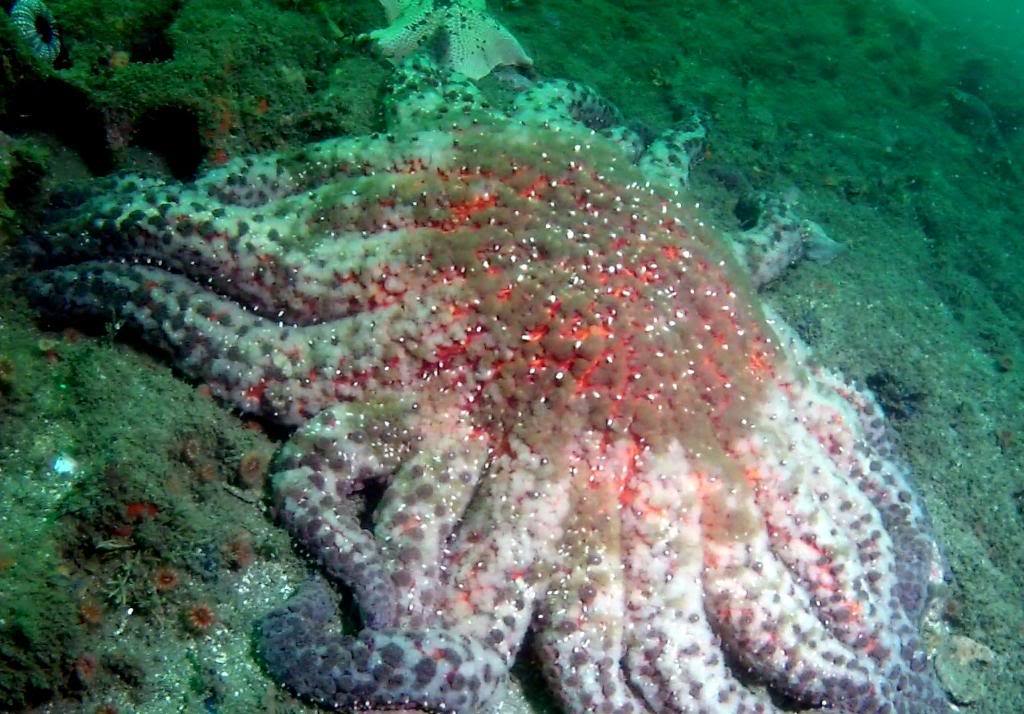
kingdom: Animalia
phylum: Echinodermata
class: Asteroidea
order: Forcipulatida
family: Asteriidae
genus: Pycnopodia
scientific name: Pycnopodia helianthoides
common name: Rag mop
